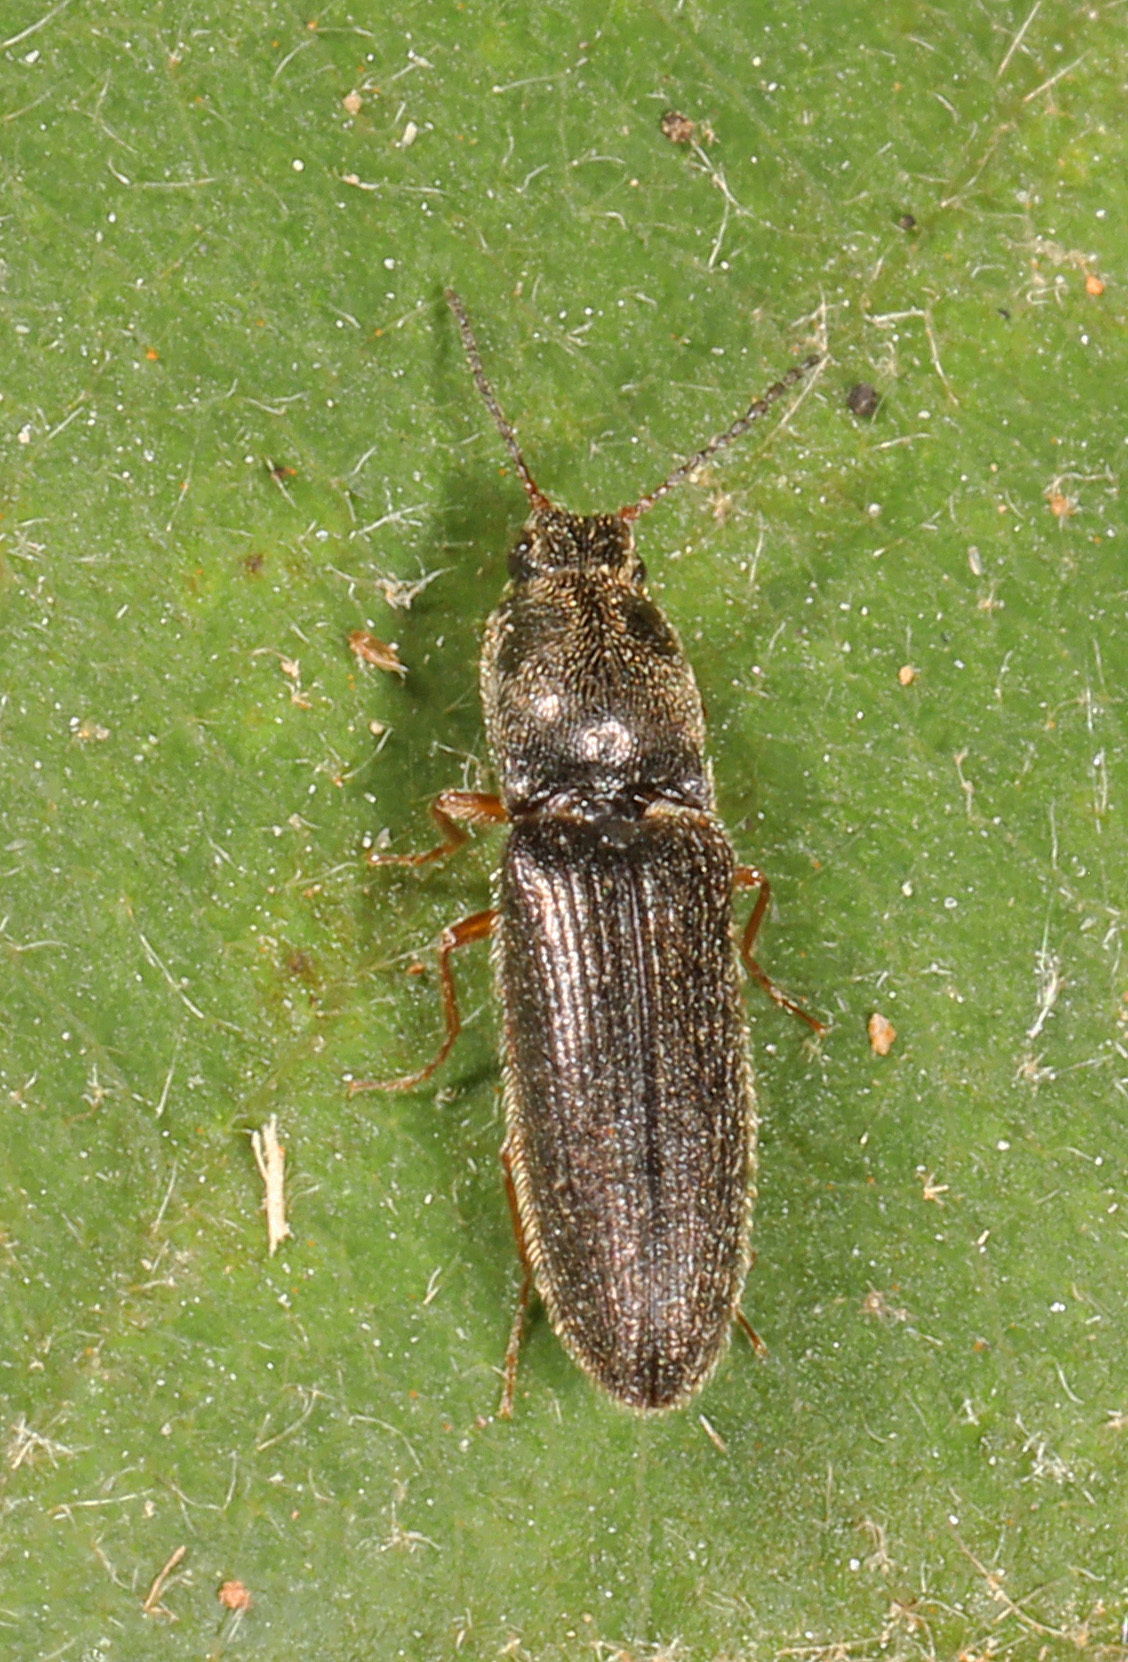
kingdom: Animalia
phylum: Arthropoda
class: Insecta
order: Coleoptera
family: Elateridae
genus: Limonius
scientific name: Limonius quercinus
